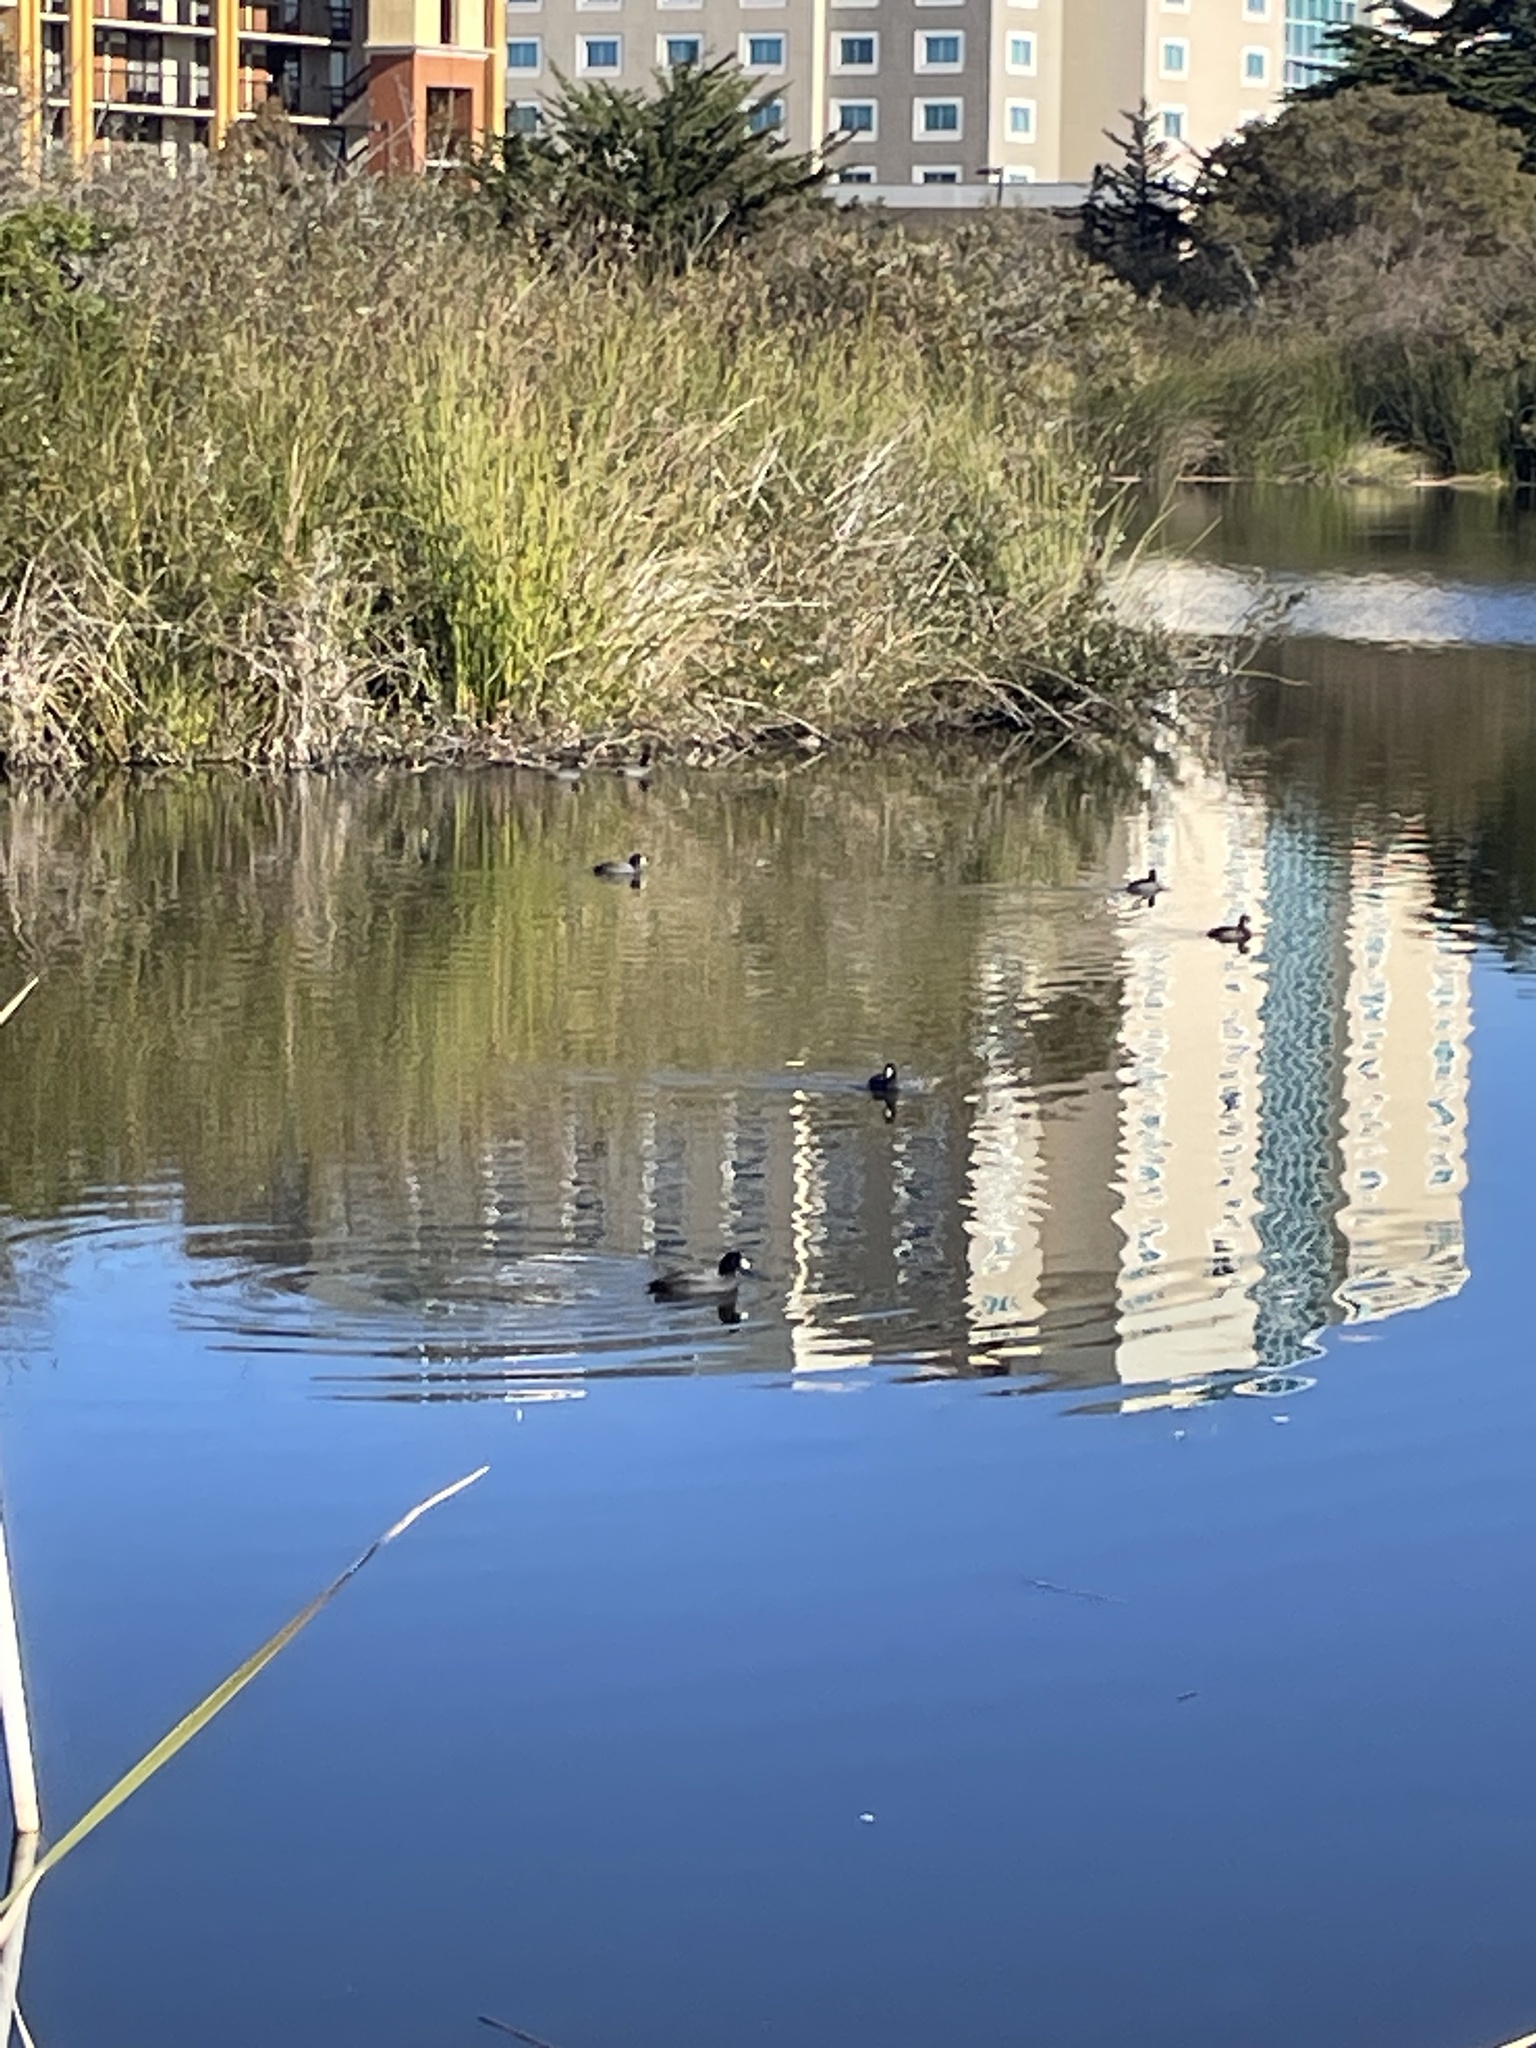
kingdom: Animalia
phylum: Chordata
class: Aves
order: Gruiformes
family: Rallidae
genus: Fulica
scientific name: Fulica americana
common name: American coot
